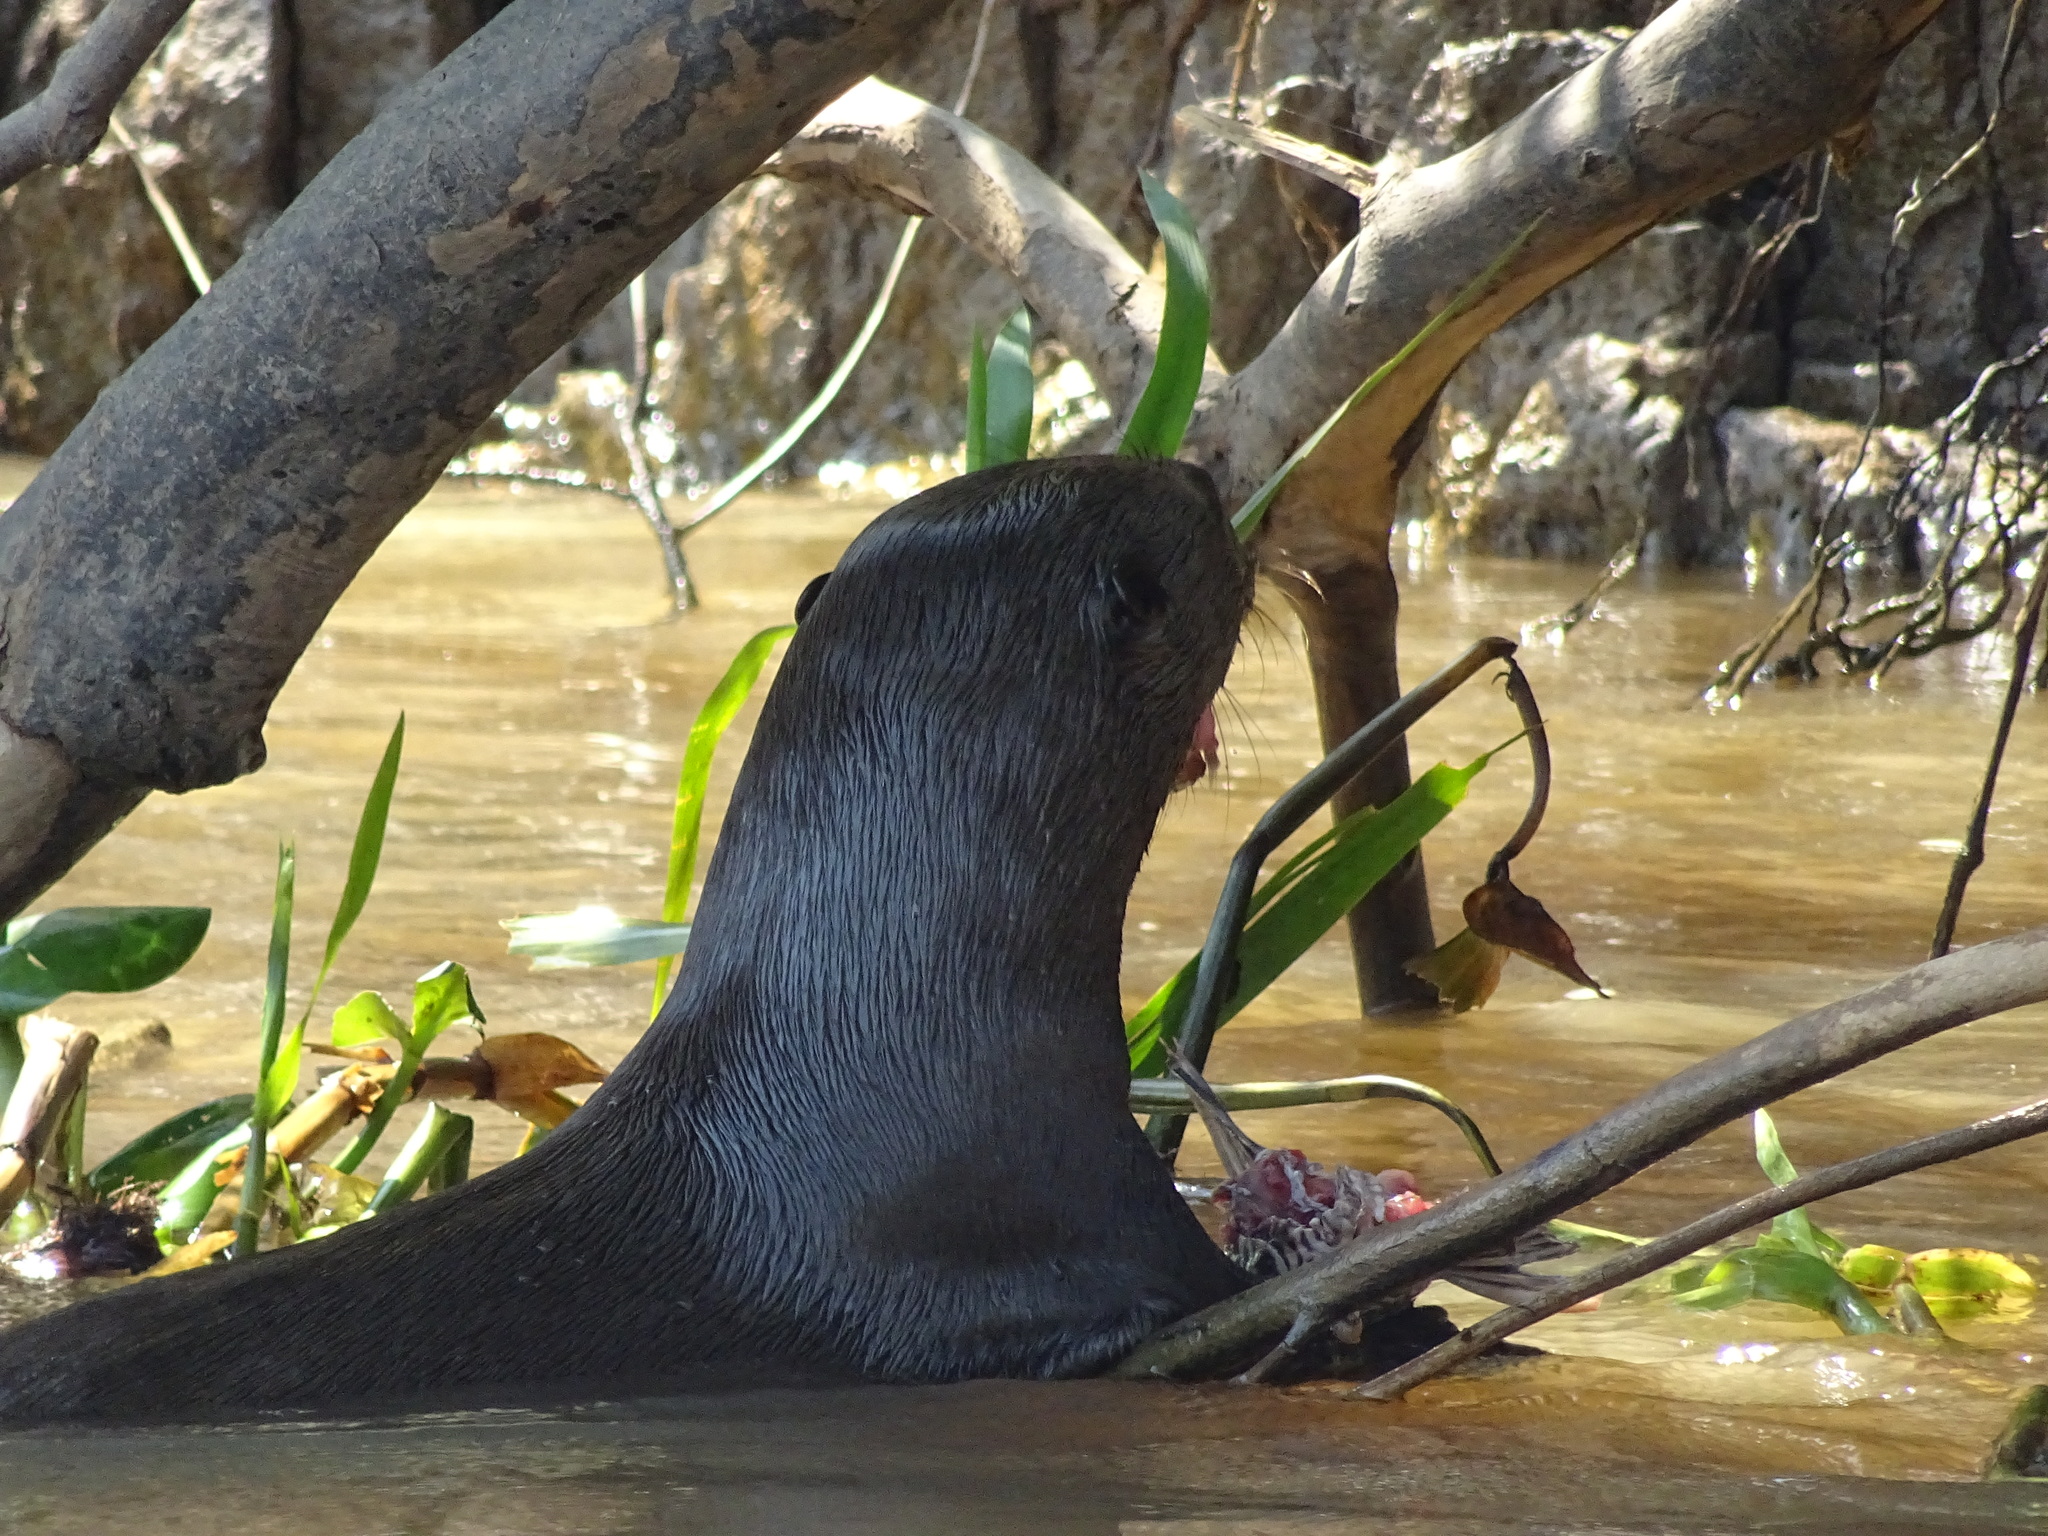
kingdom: Animalia
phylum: Chordata
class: Mammalia
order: Carnivora
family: Mustelidae
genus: Pteronura
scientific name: Pteronura brasiliensis
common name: Giant otter
